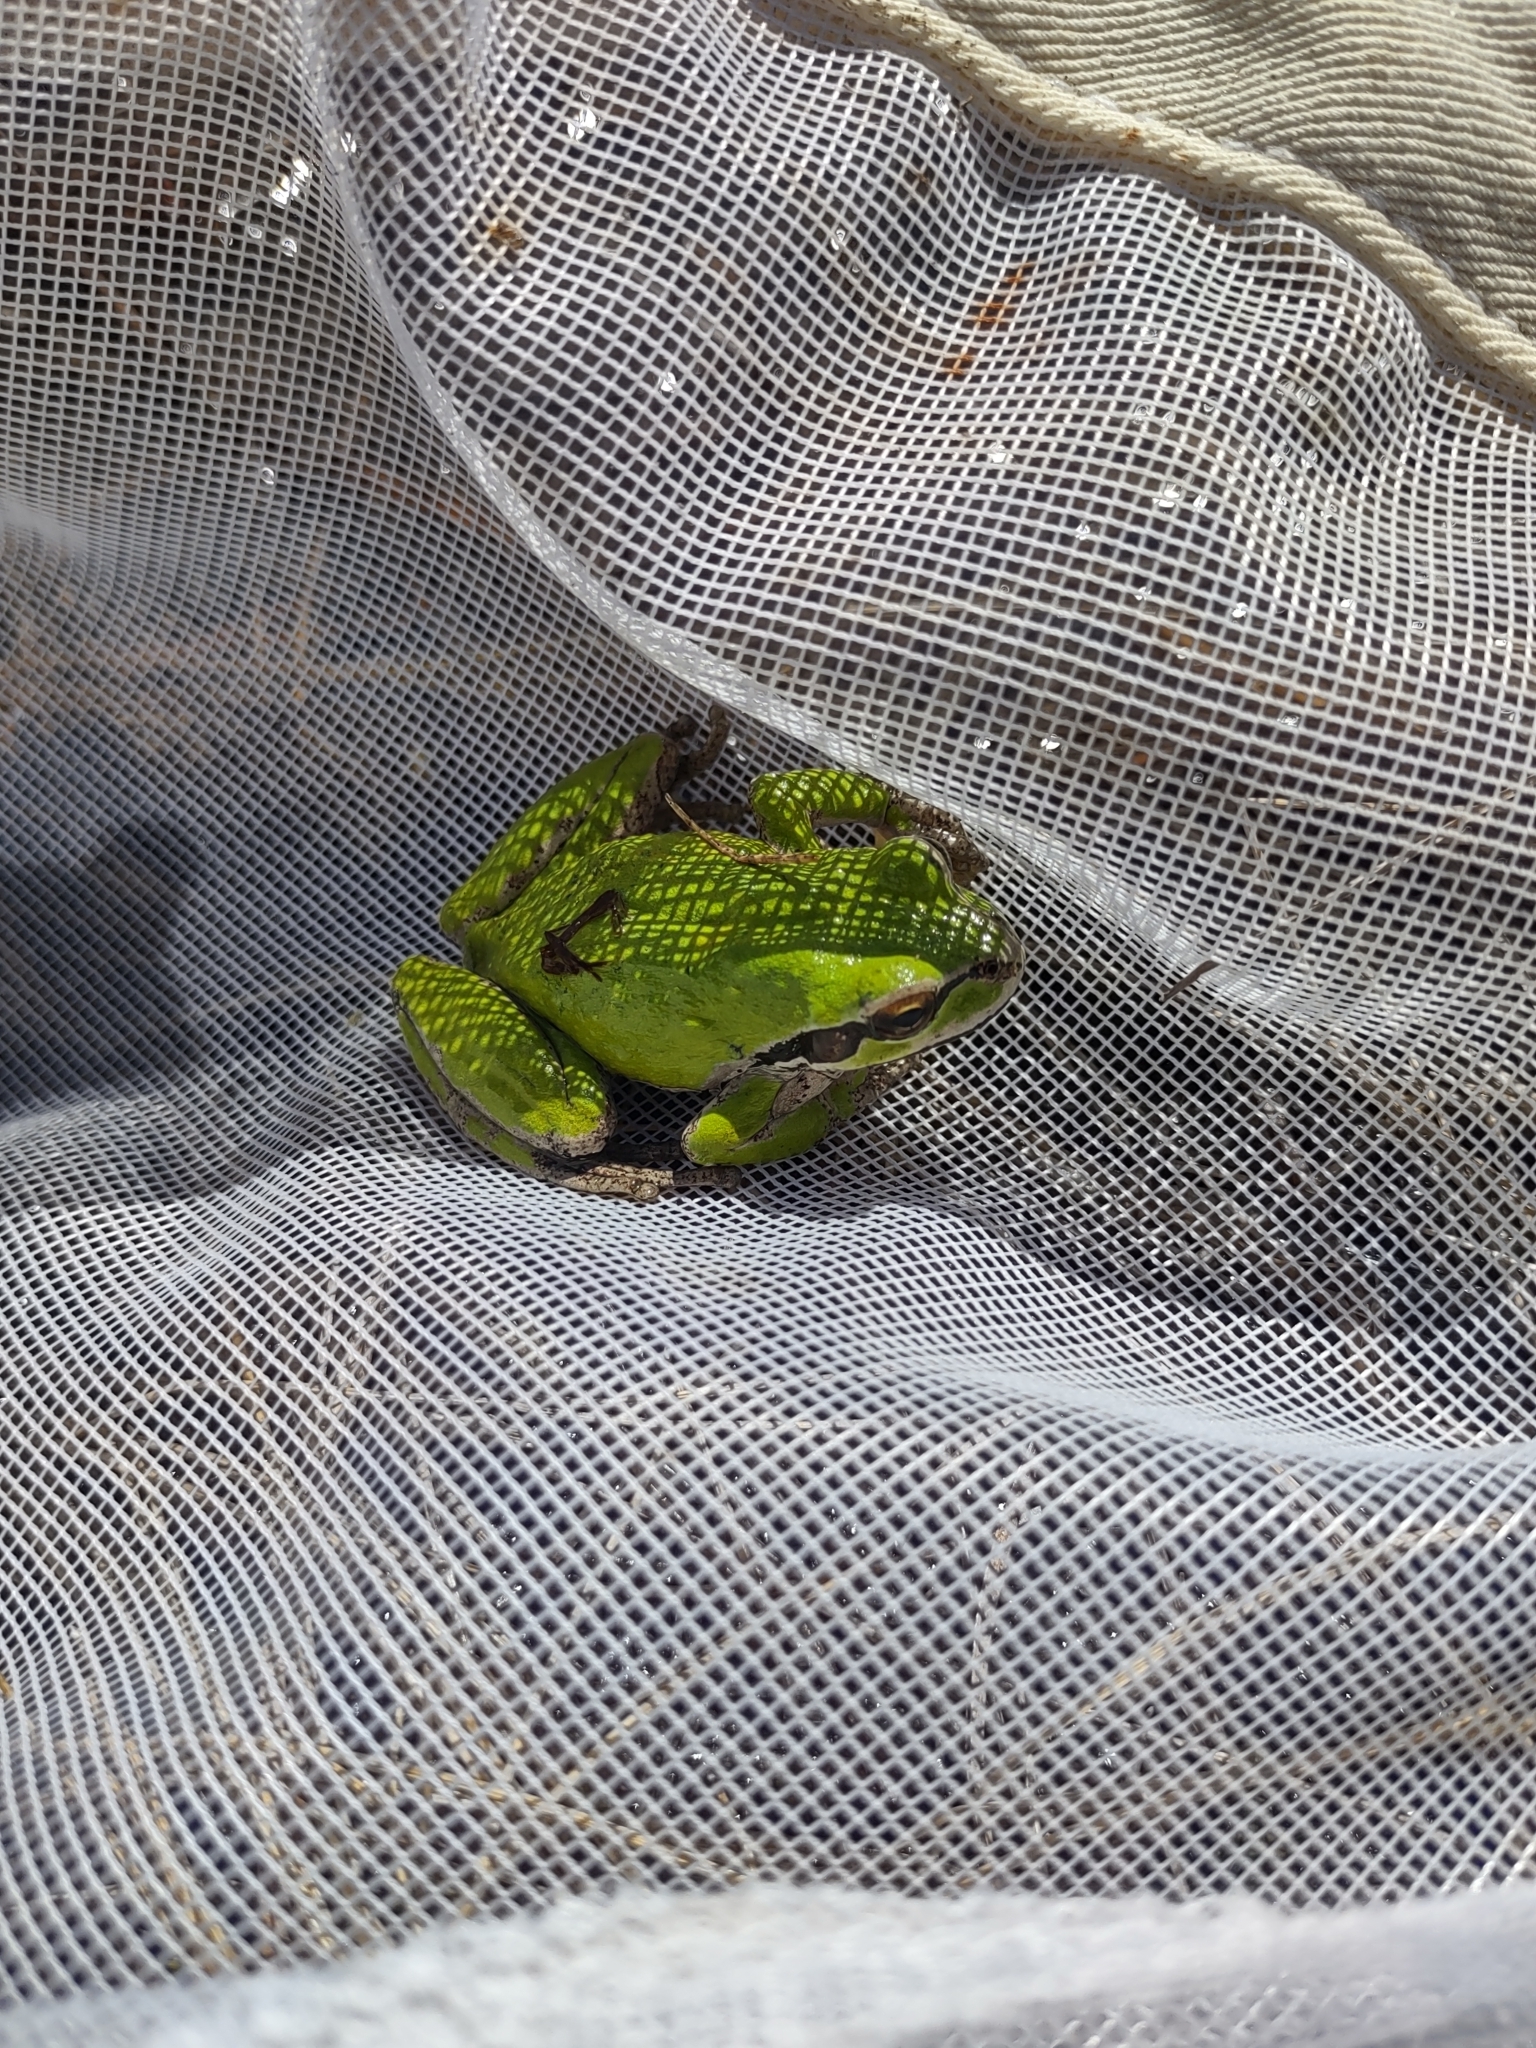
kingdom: Animalia
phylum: Chordata
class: Amphibia
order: Anura
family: Hylidae
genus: Pseudacris
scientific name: Pseudacris regilla
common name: Pacific chorus frog
